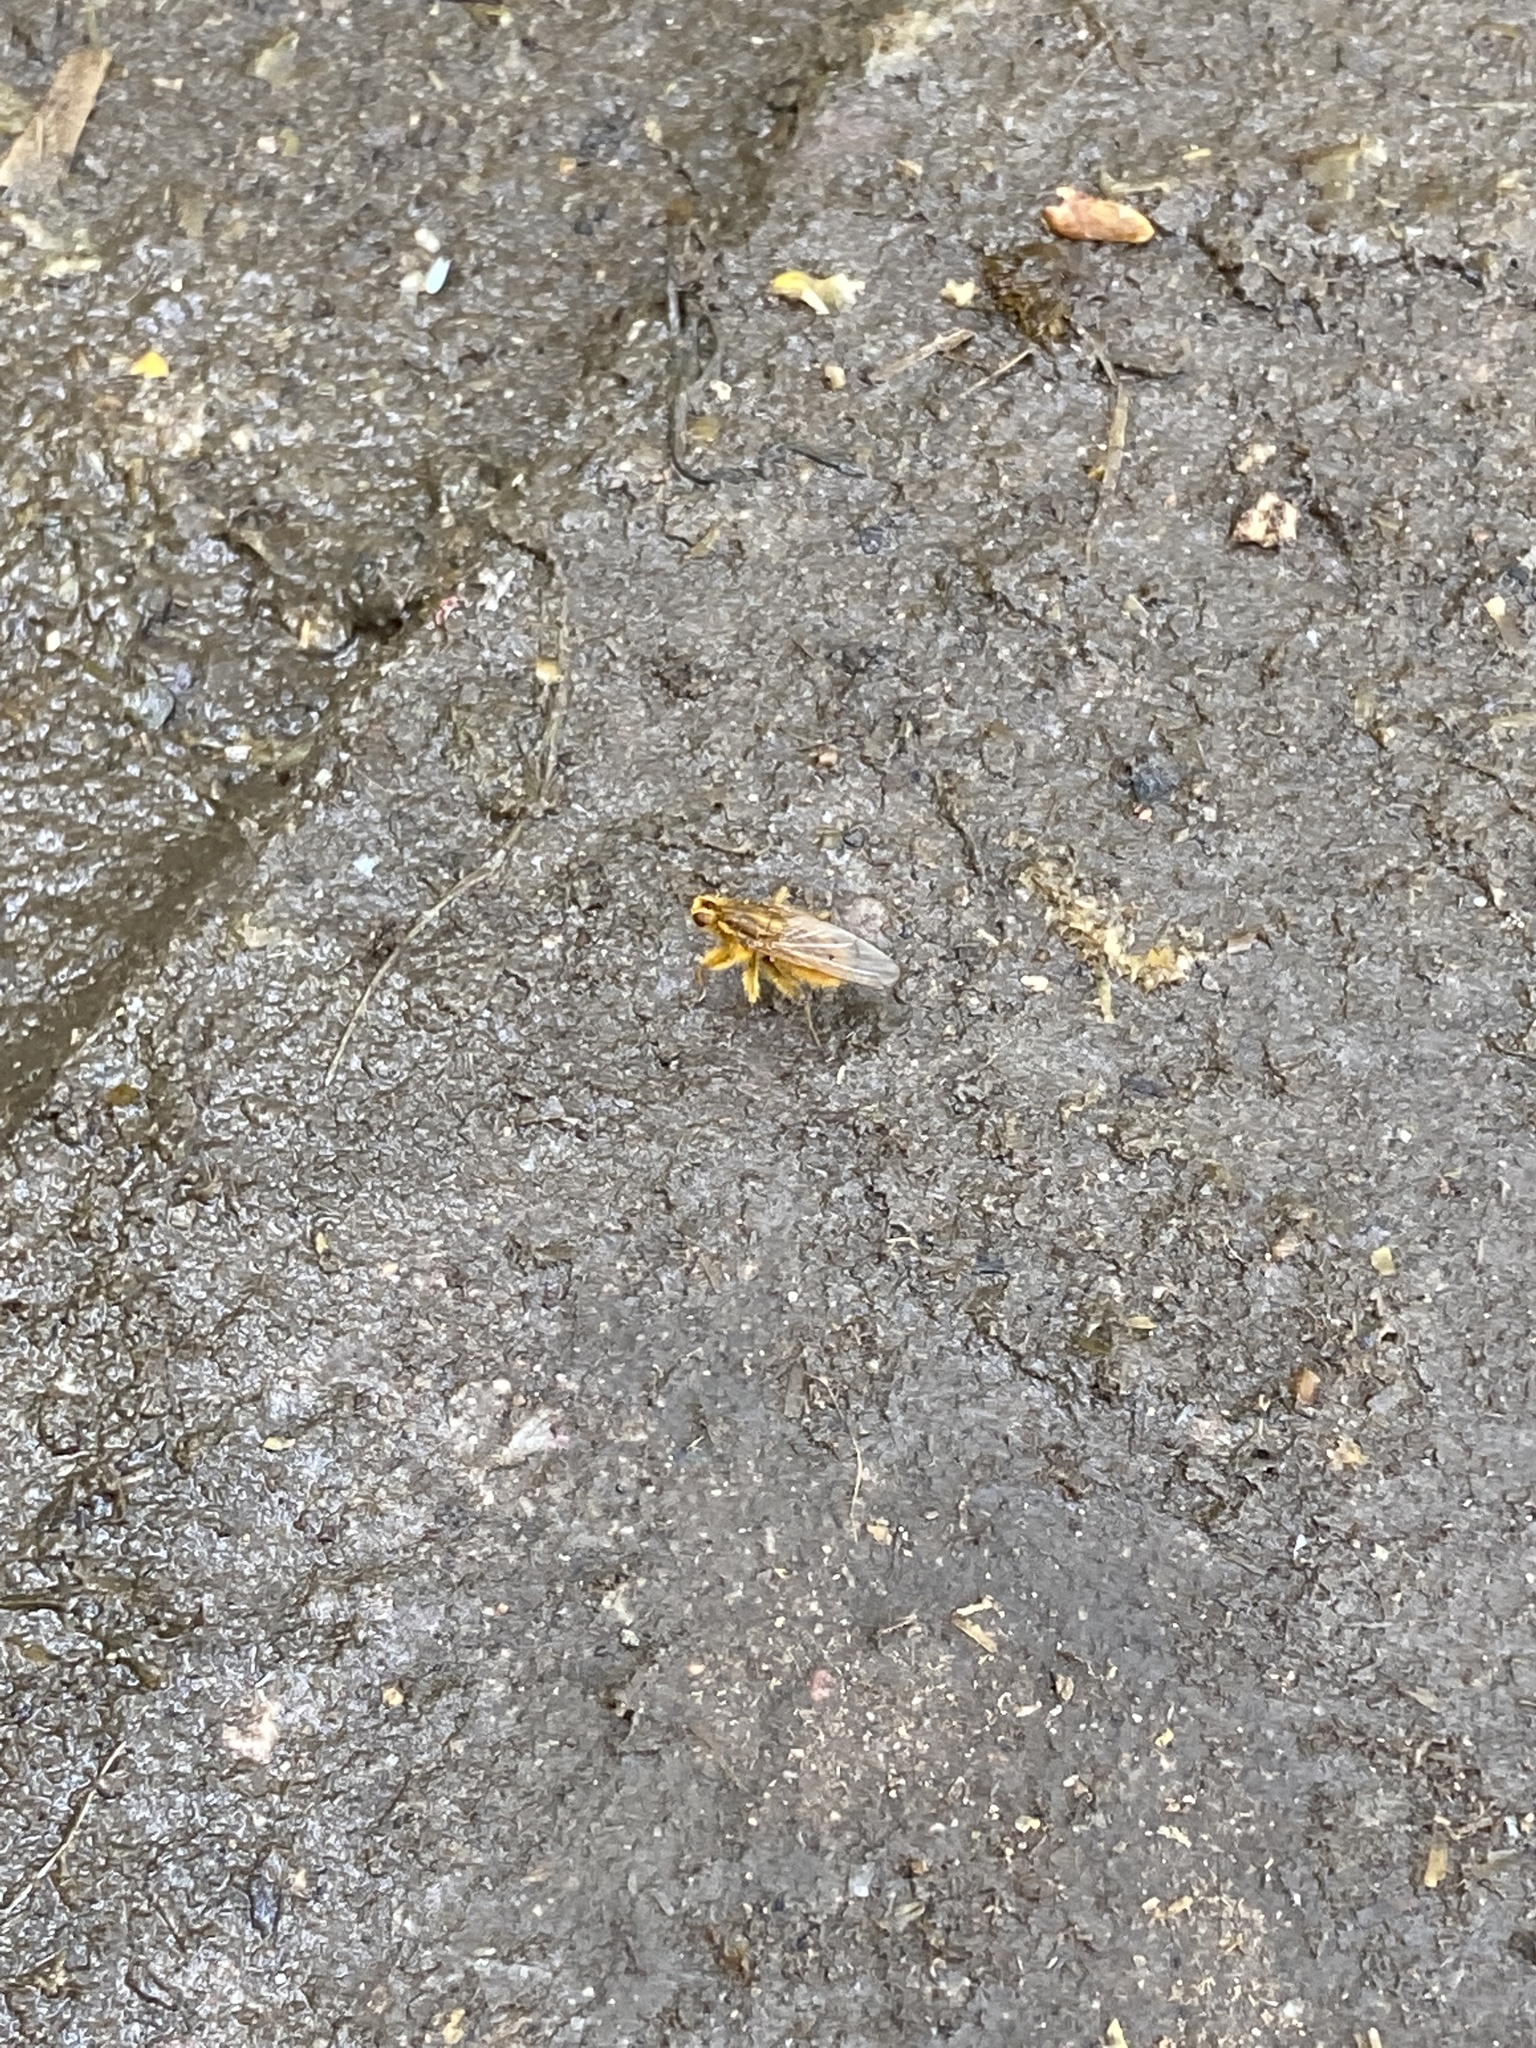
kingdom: Animalia
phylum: Arthropoda
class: Insecta
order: Diptera
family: Scathophagidae
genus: Scathophaga
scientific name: Scathophaga stercoraria
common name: Yellow dung fly
